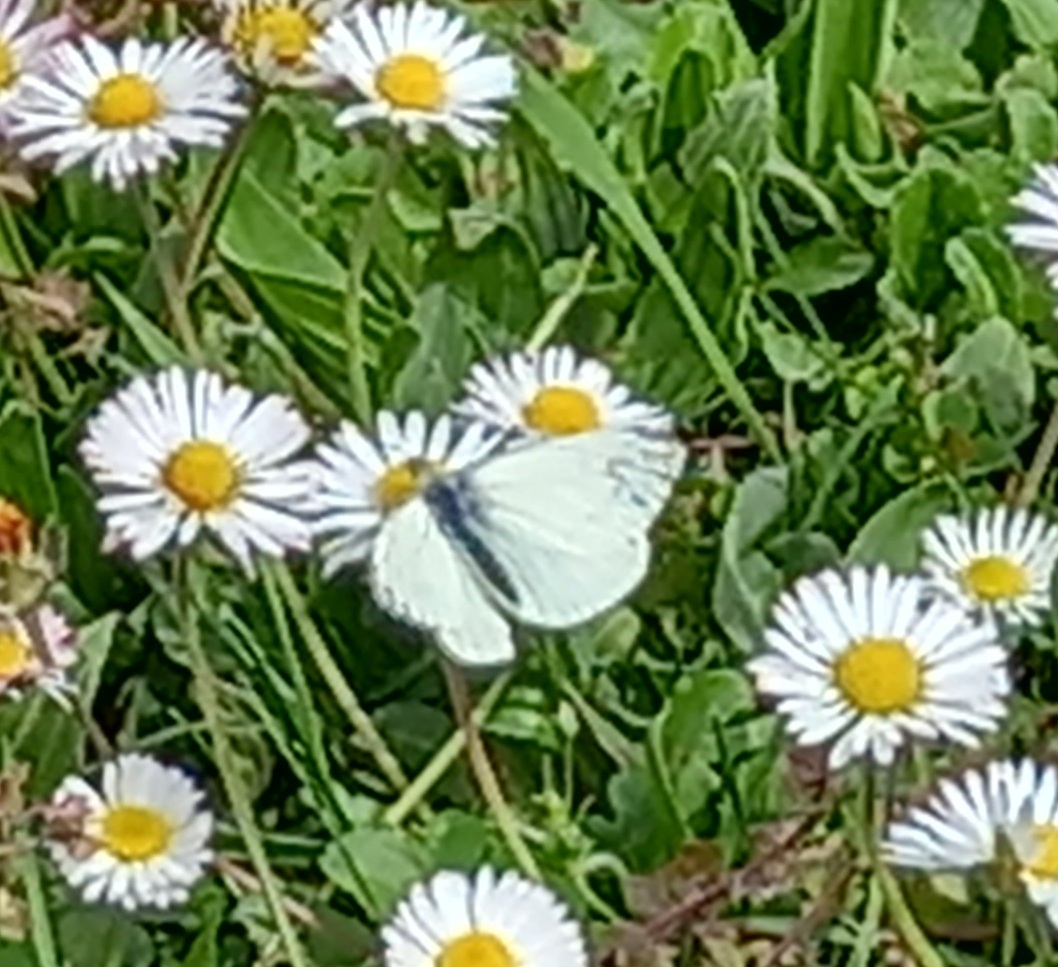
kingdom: Animalia
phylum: Arthropoda
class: Insecta
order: Lepidoptera
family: Pieridae
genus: Pieris
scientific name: Pieris rapae
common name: Small white
